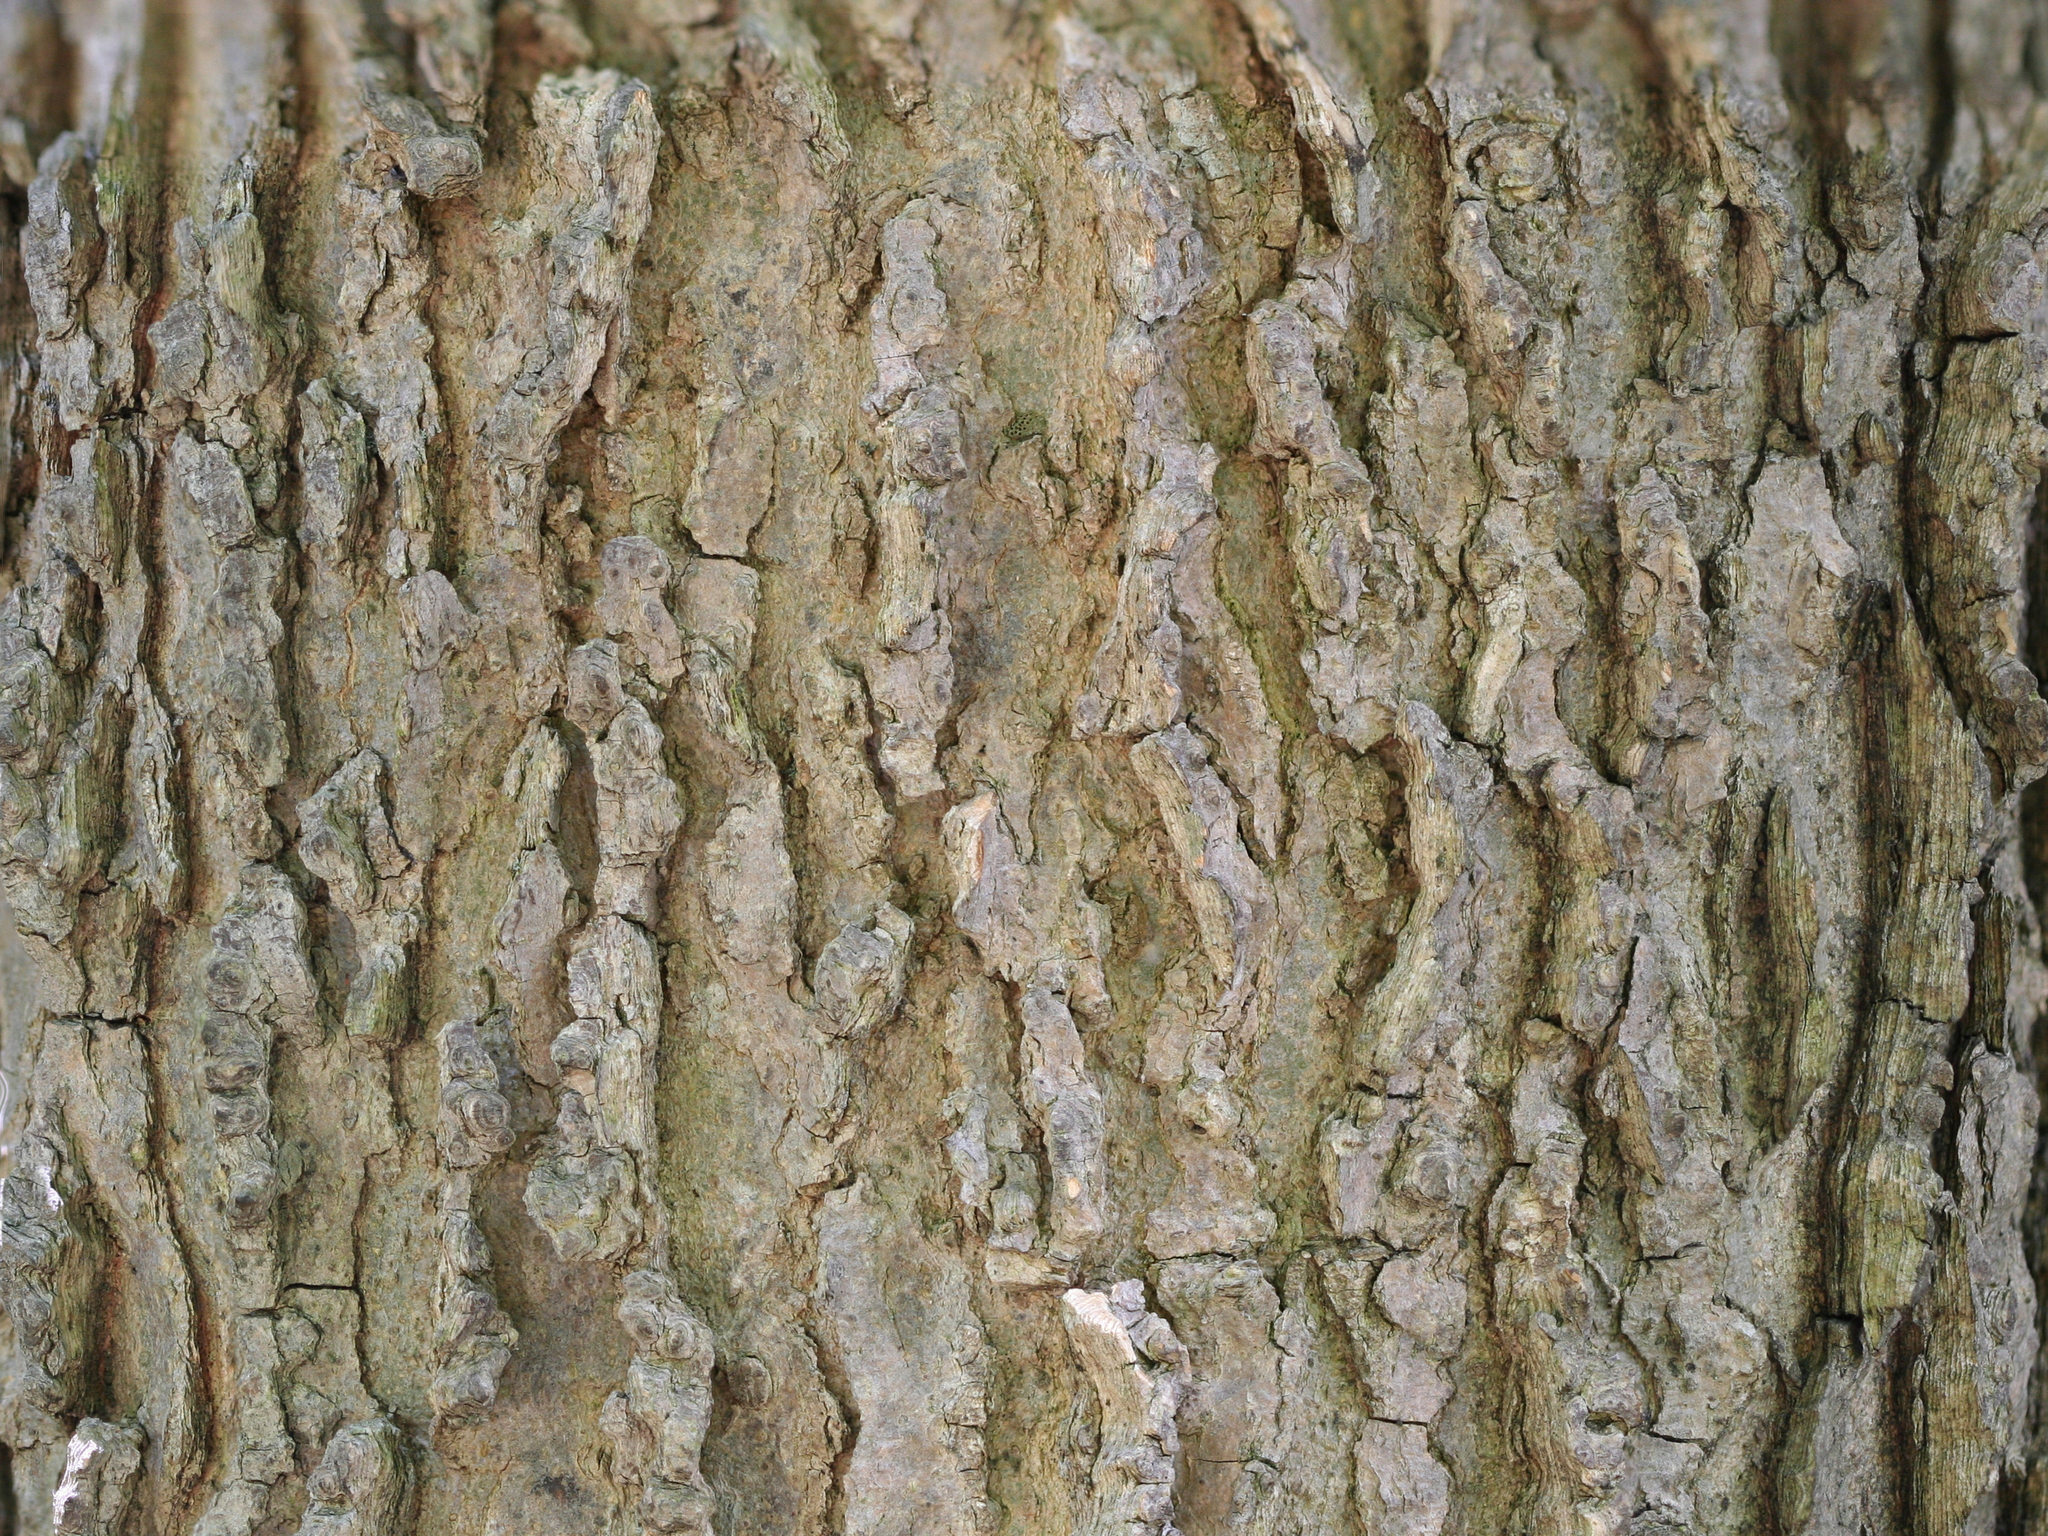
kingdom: Plantae
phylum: Tracheophyta
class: Magnoliopsida
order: Rosales
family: Cannabaceae
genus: Celtis
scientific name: Celtis occidentalis
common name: Common hackberry
